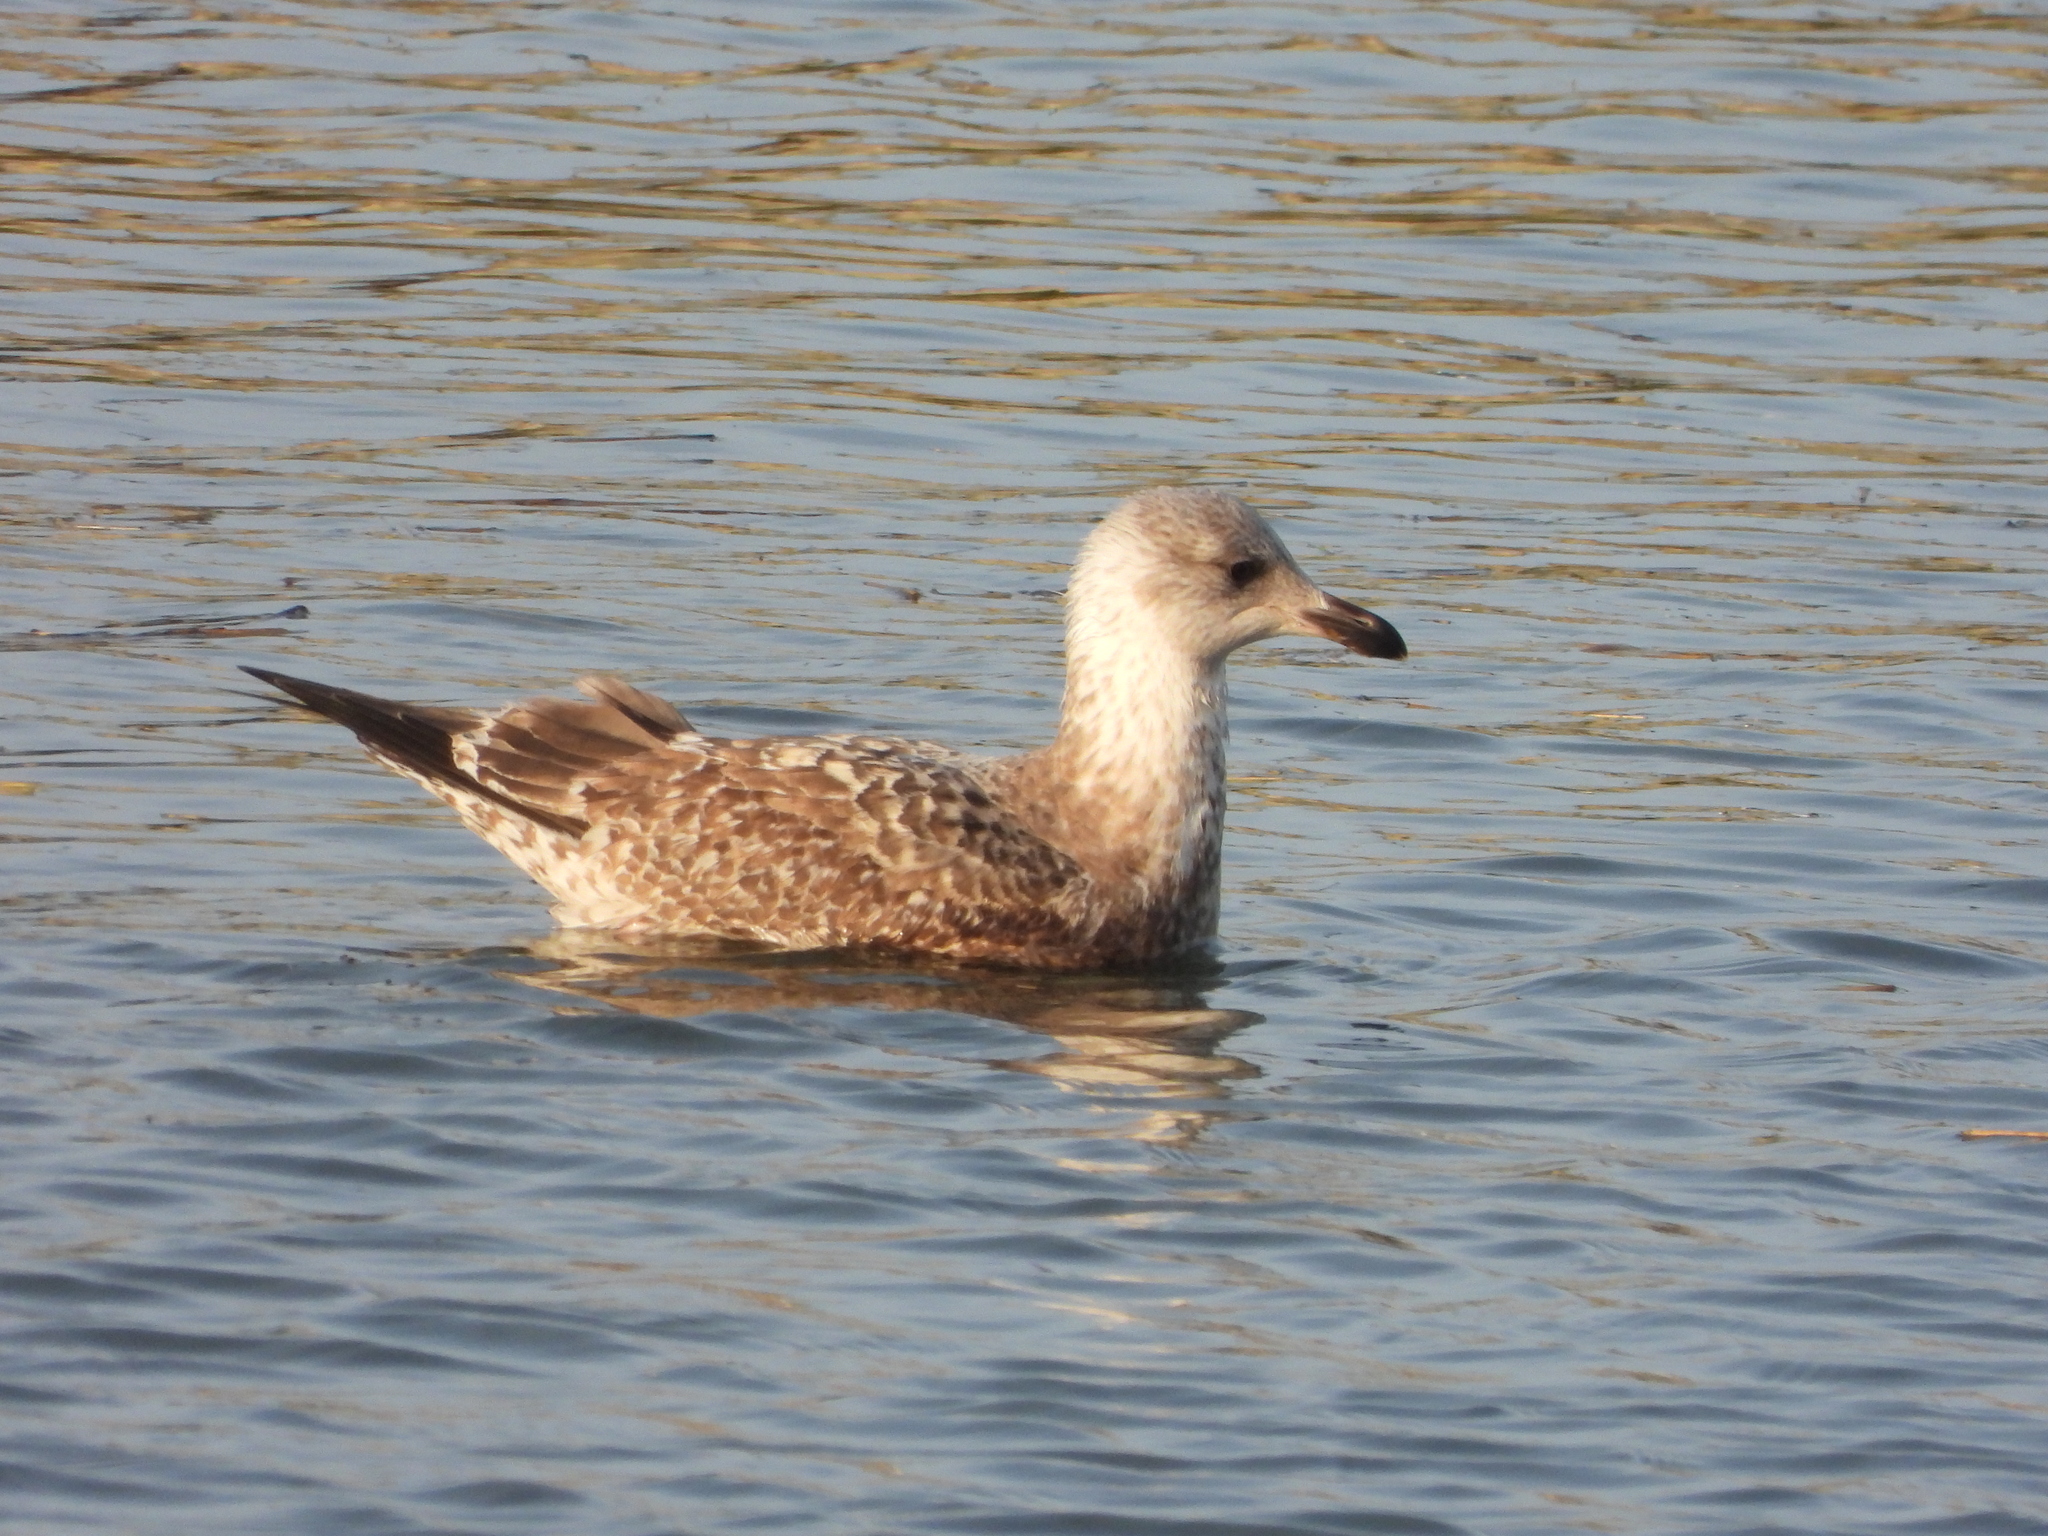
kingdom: Animalia
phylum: Chordata
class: Aves
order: Charadriiformes
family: Laridae
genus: Larus
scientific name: Larus argentatus
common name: Herring gull
